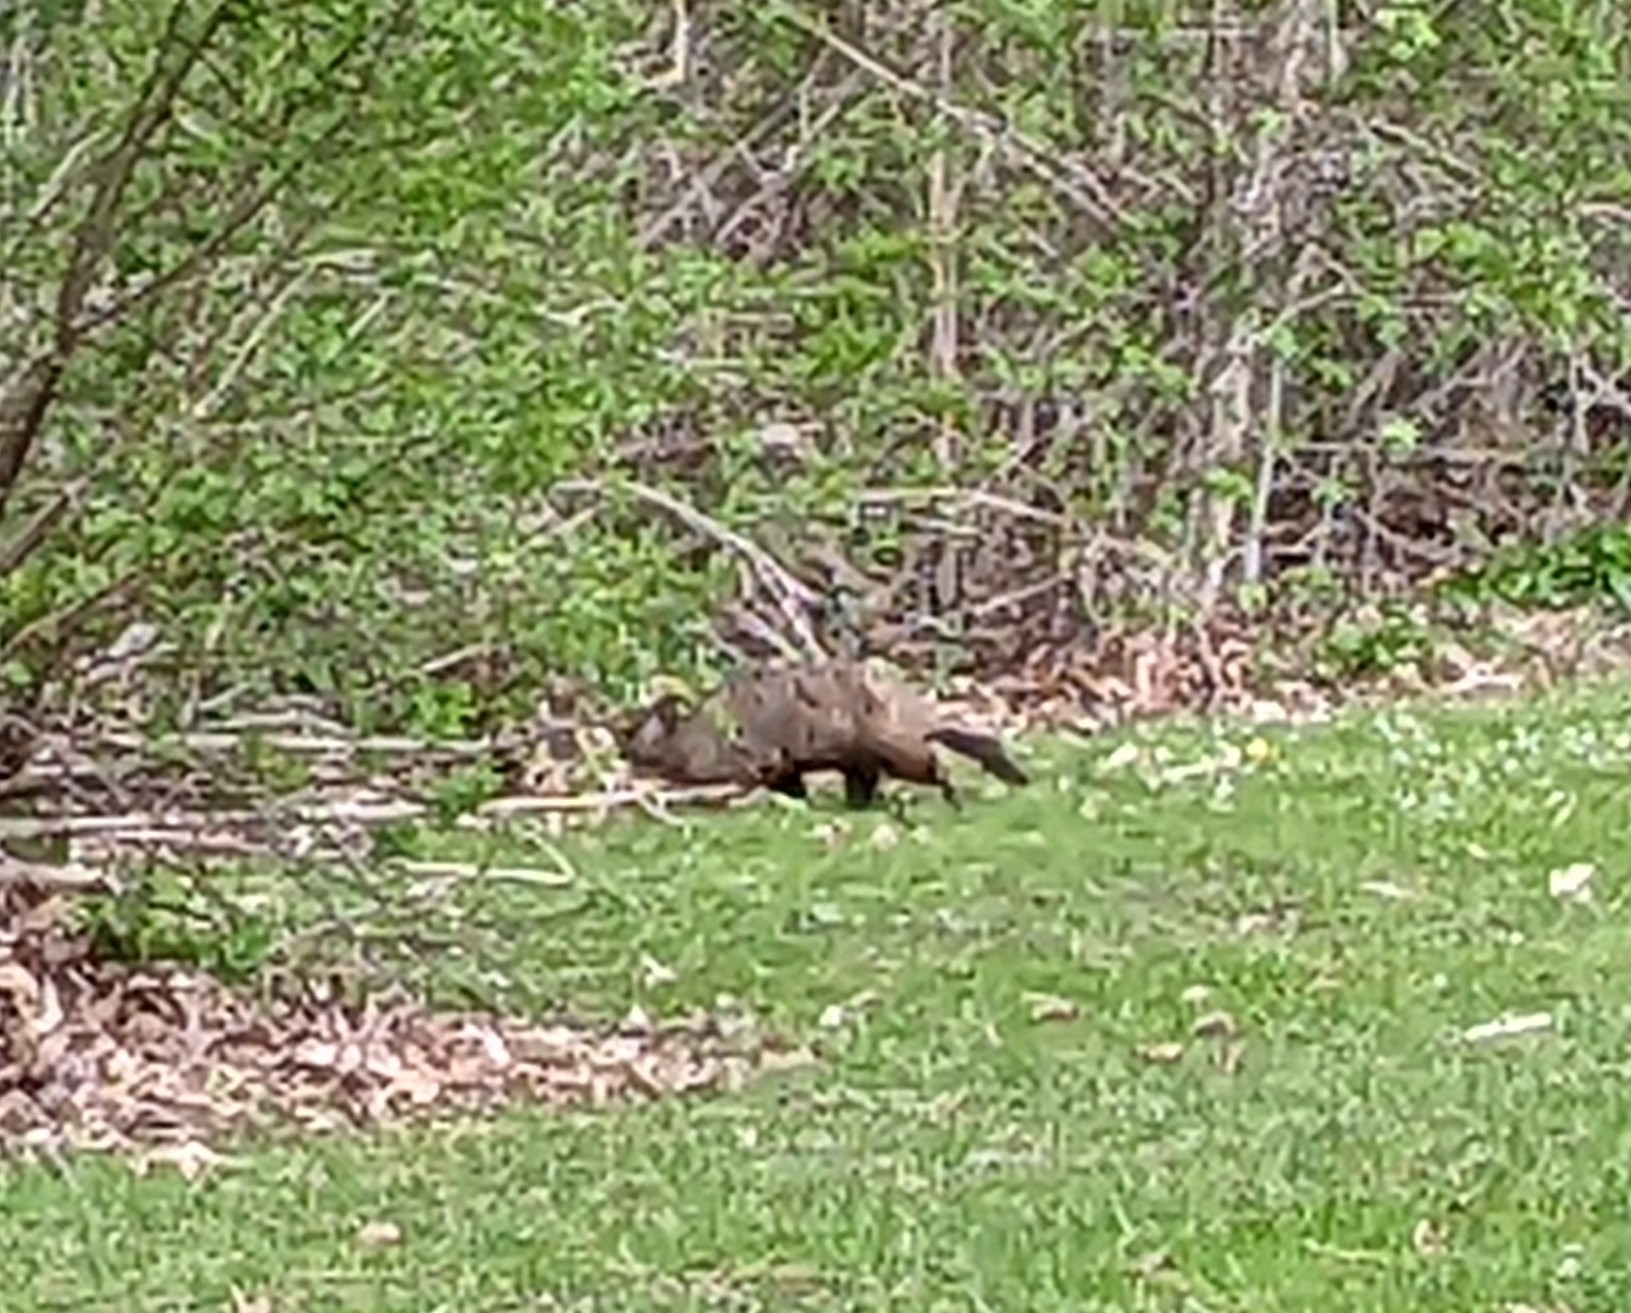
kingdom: Animalia
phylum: Chordata
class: Mammalia
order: Rodentia
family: Sciuridae
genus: Marmota
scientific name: Marmota monax
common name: Groundhog
